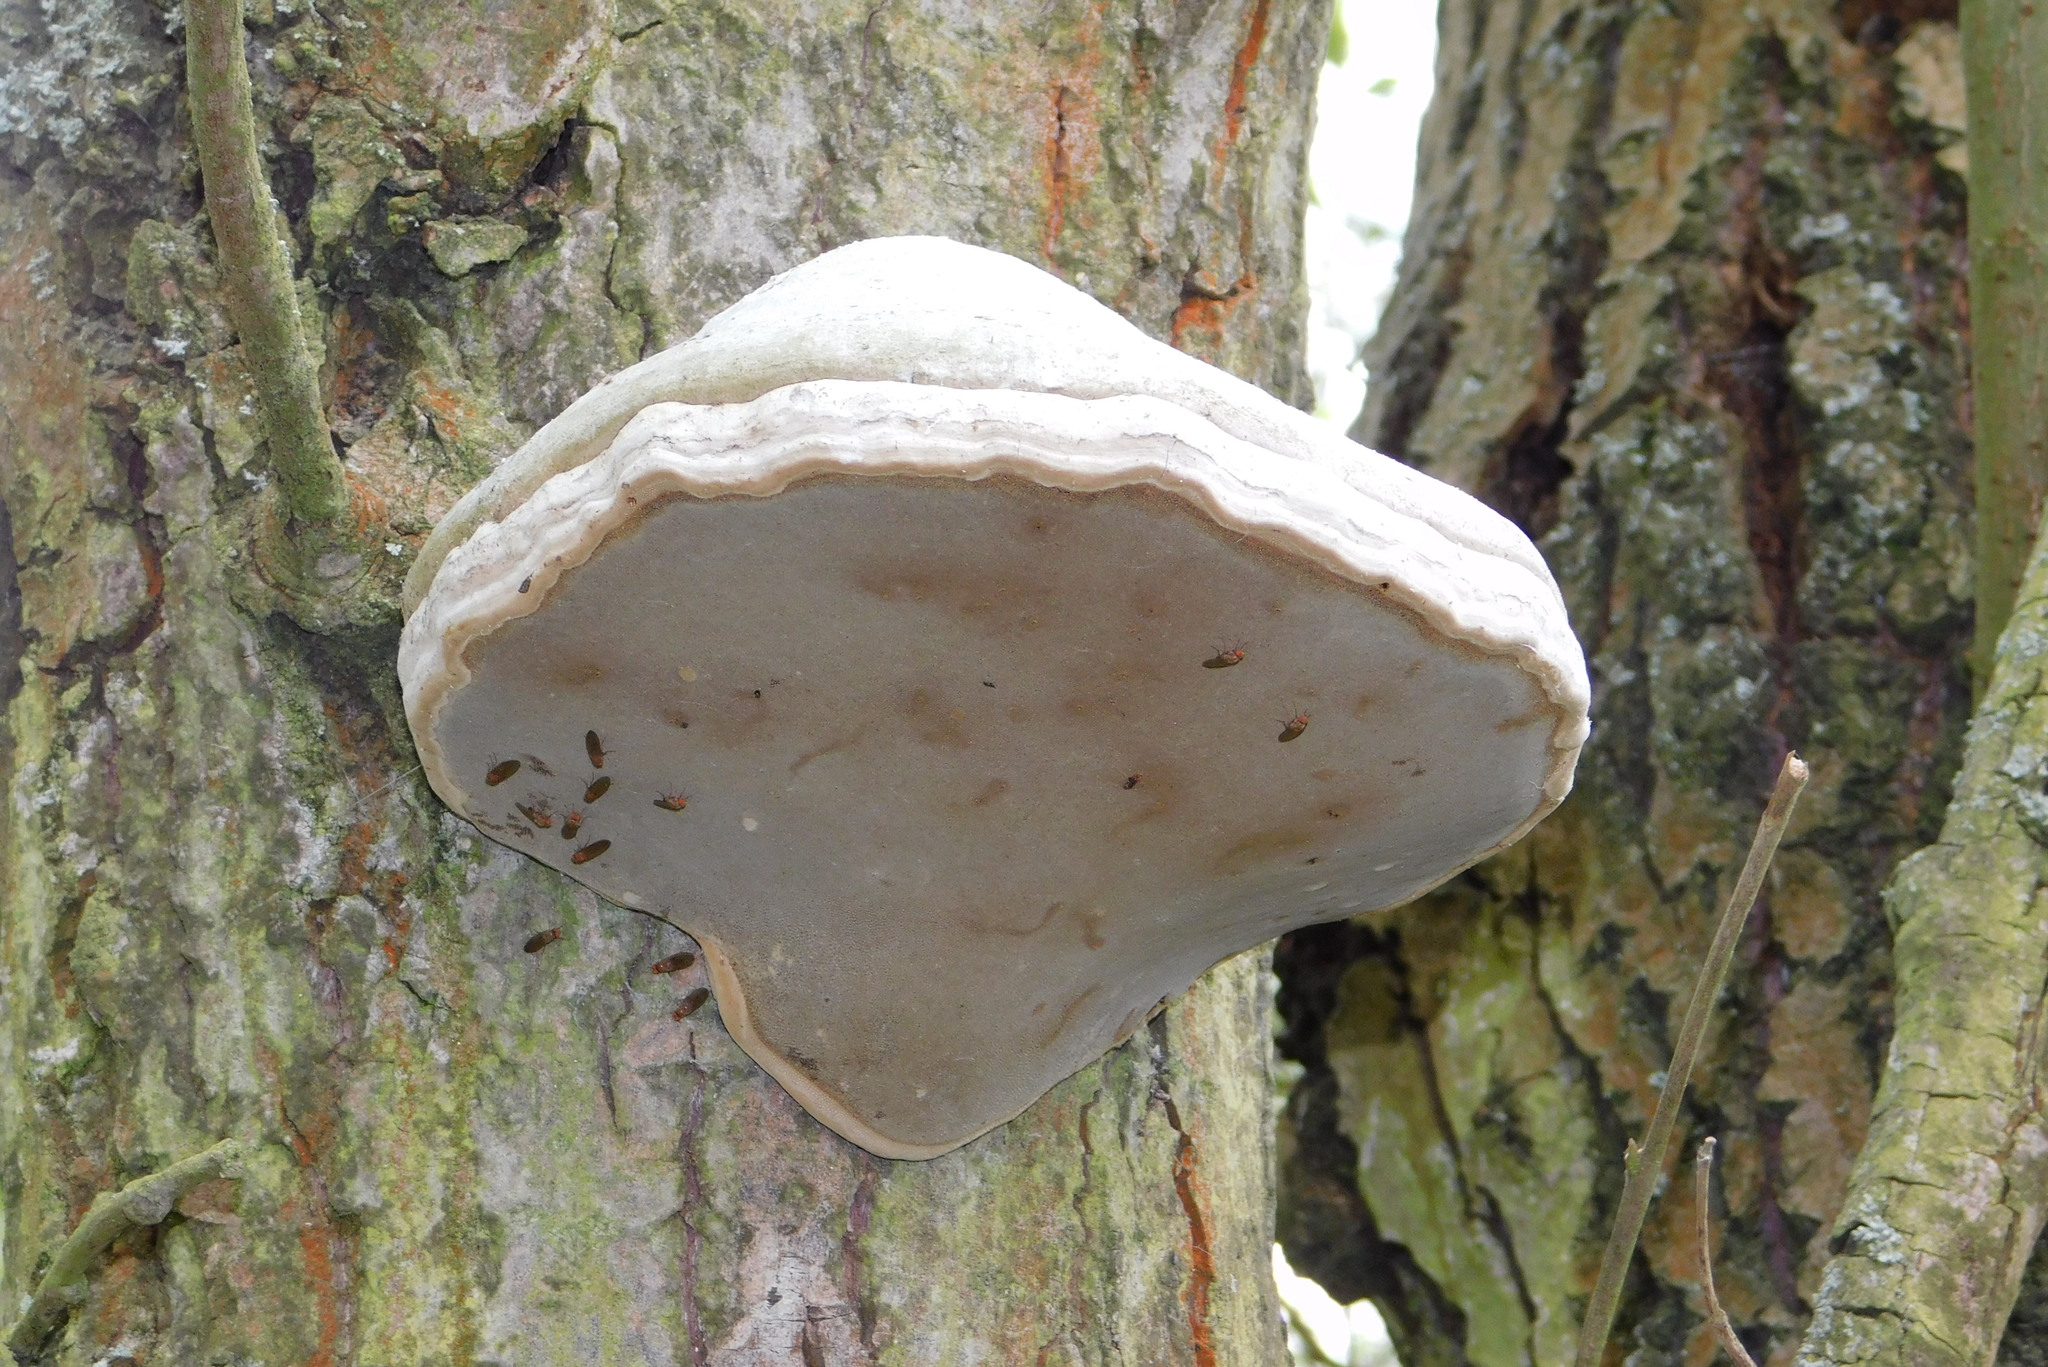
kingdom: Fungi
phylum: Basidiomycota
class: Agaricomycetes
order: Polyporales
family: Polyporaceae
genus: Fomes
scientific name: Fomes fomentarius
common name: Hoof fungus
